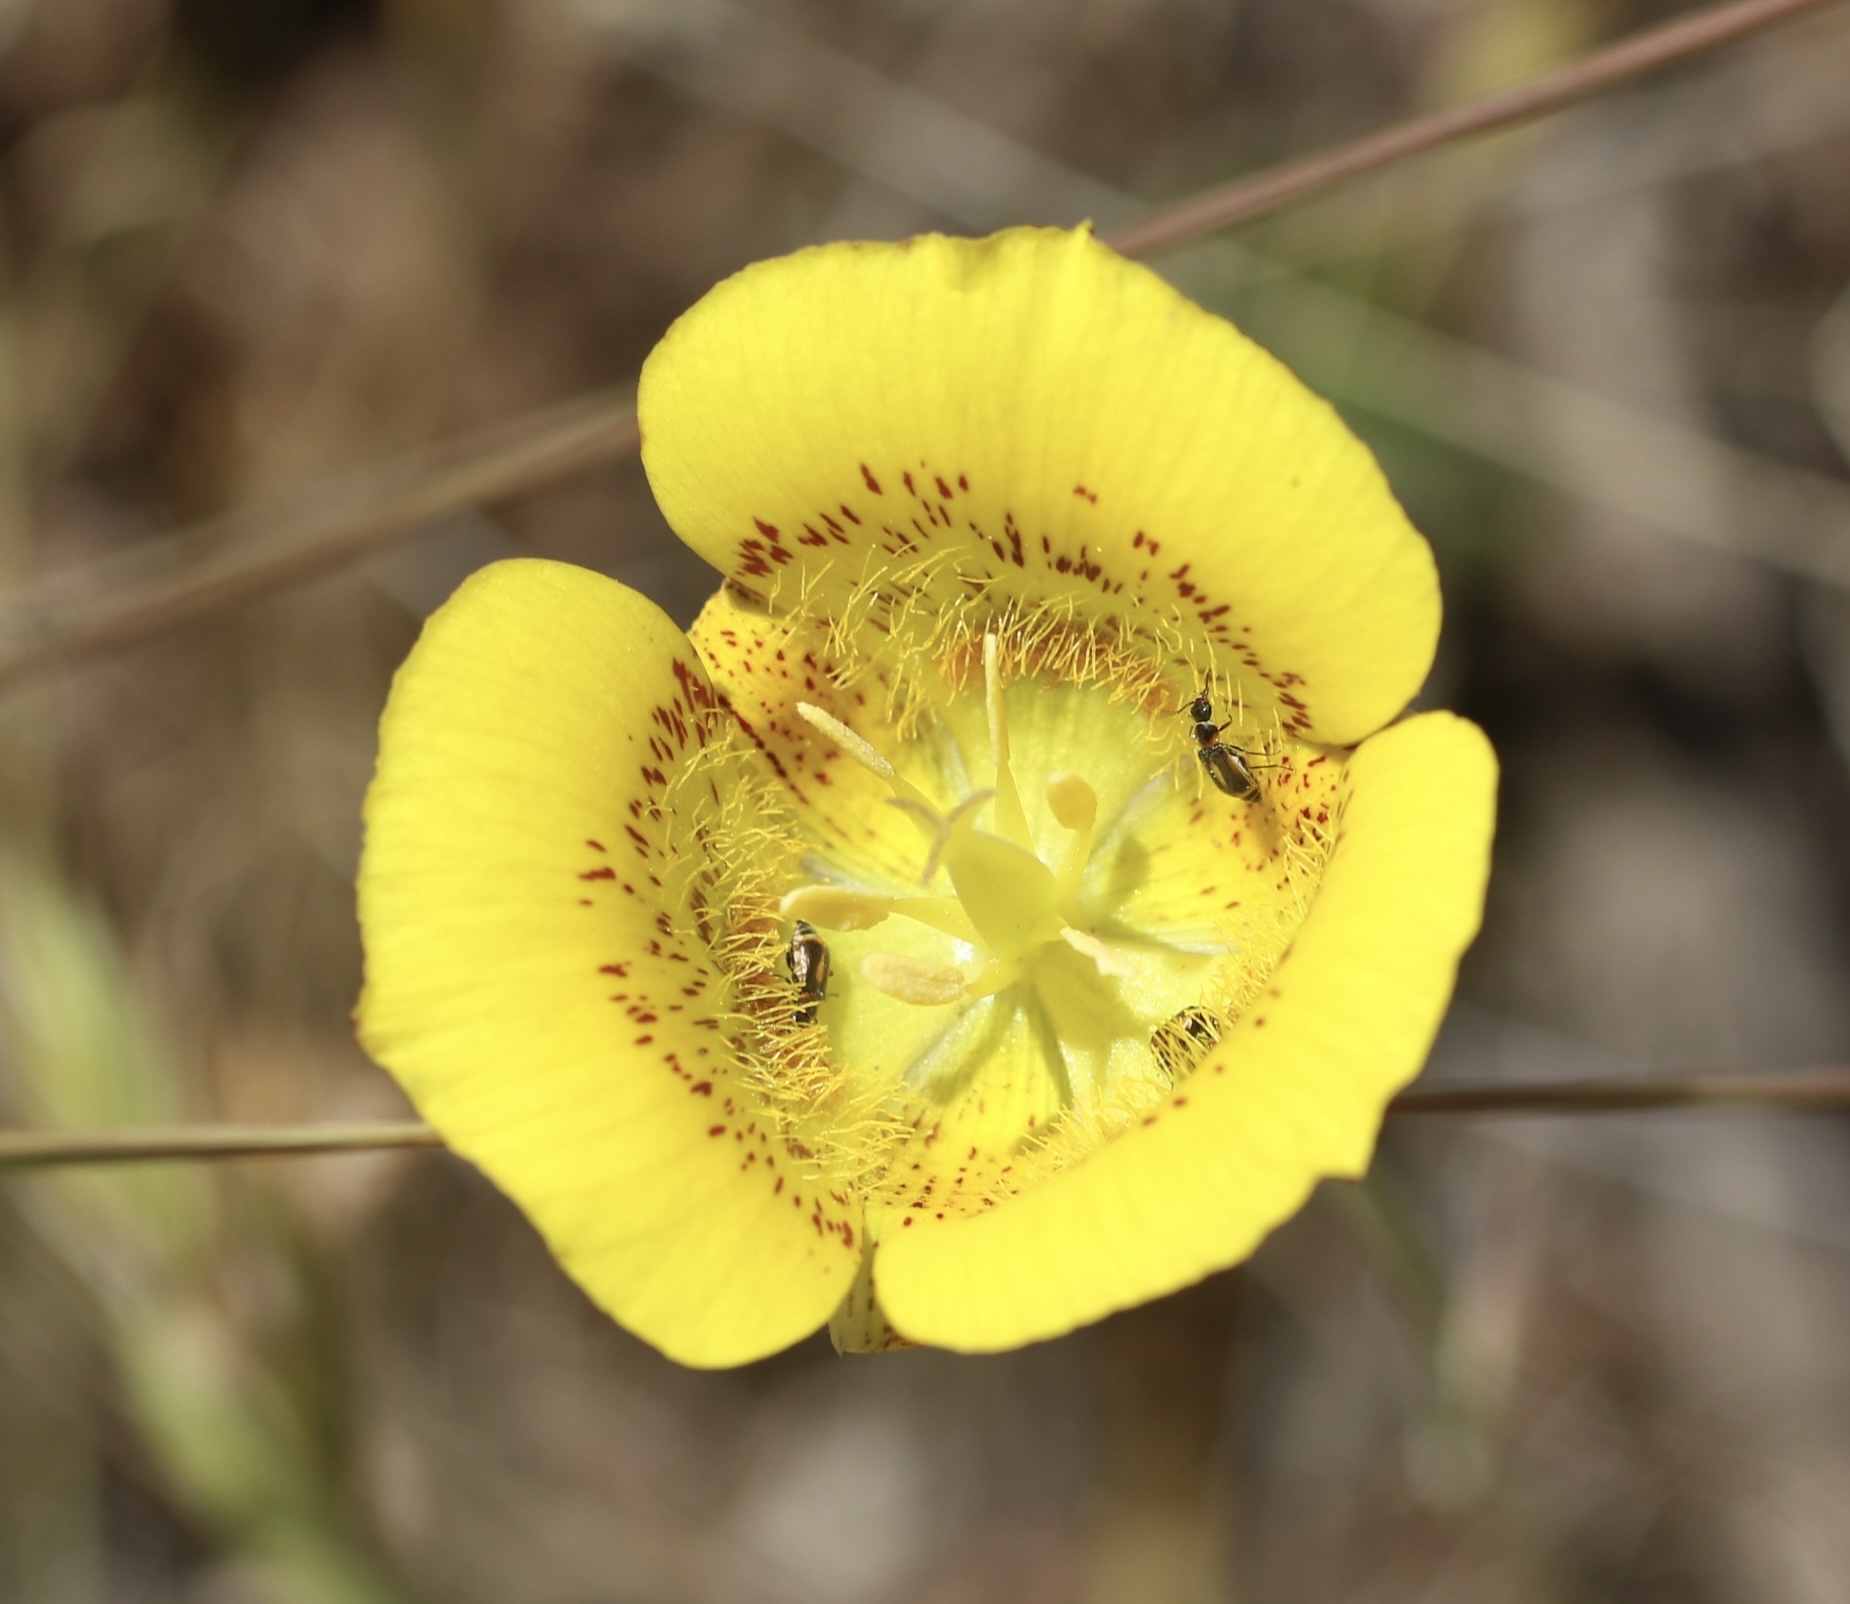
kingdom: Plantae
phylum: Tracheophyta
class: Liliopsida
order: Liliales
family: Liliaceae
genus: Calochortus
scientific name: Calochortus luteus
